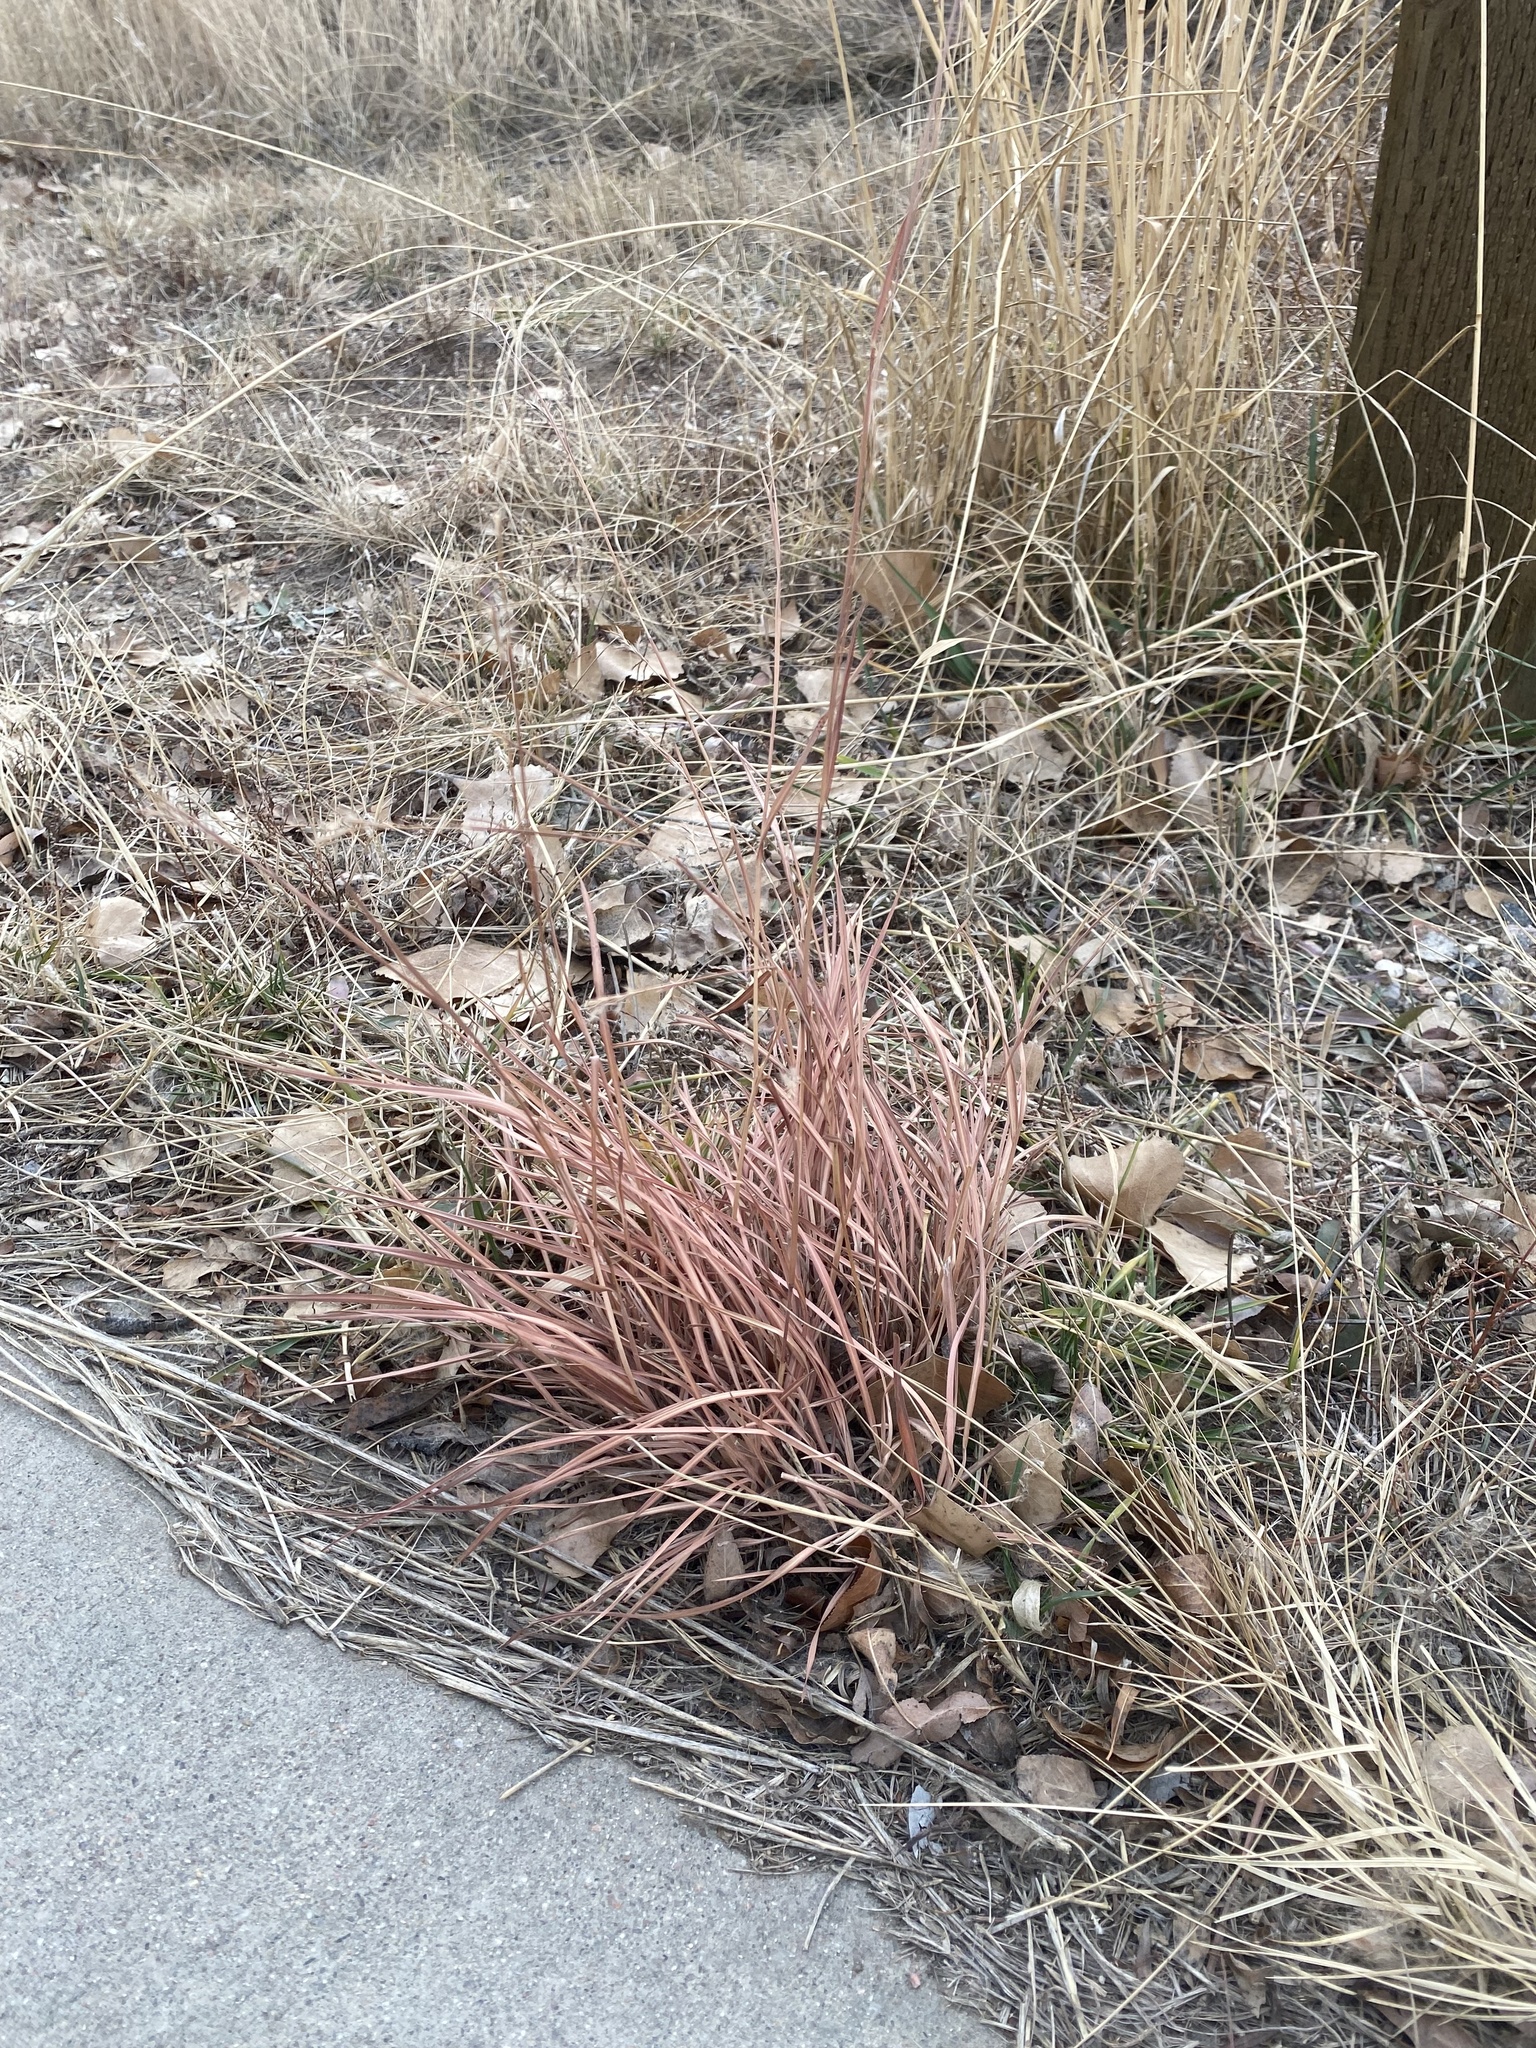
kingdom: Plantae
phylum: Tracheophyta
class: Liliopsida
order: Poales
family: Poaceae
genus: Schizachyrium
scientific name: Schizachyrium scoparium
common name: Little bluestem
